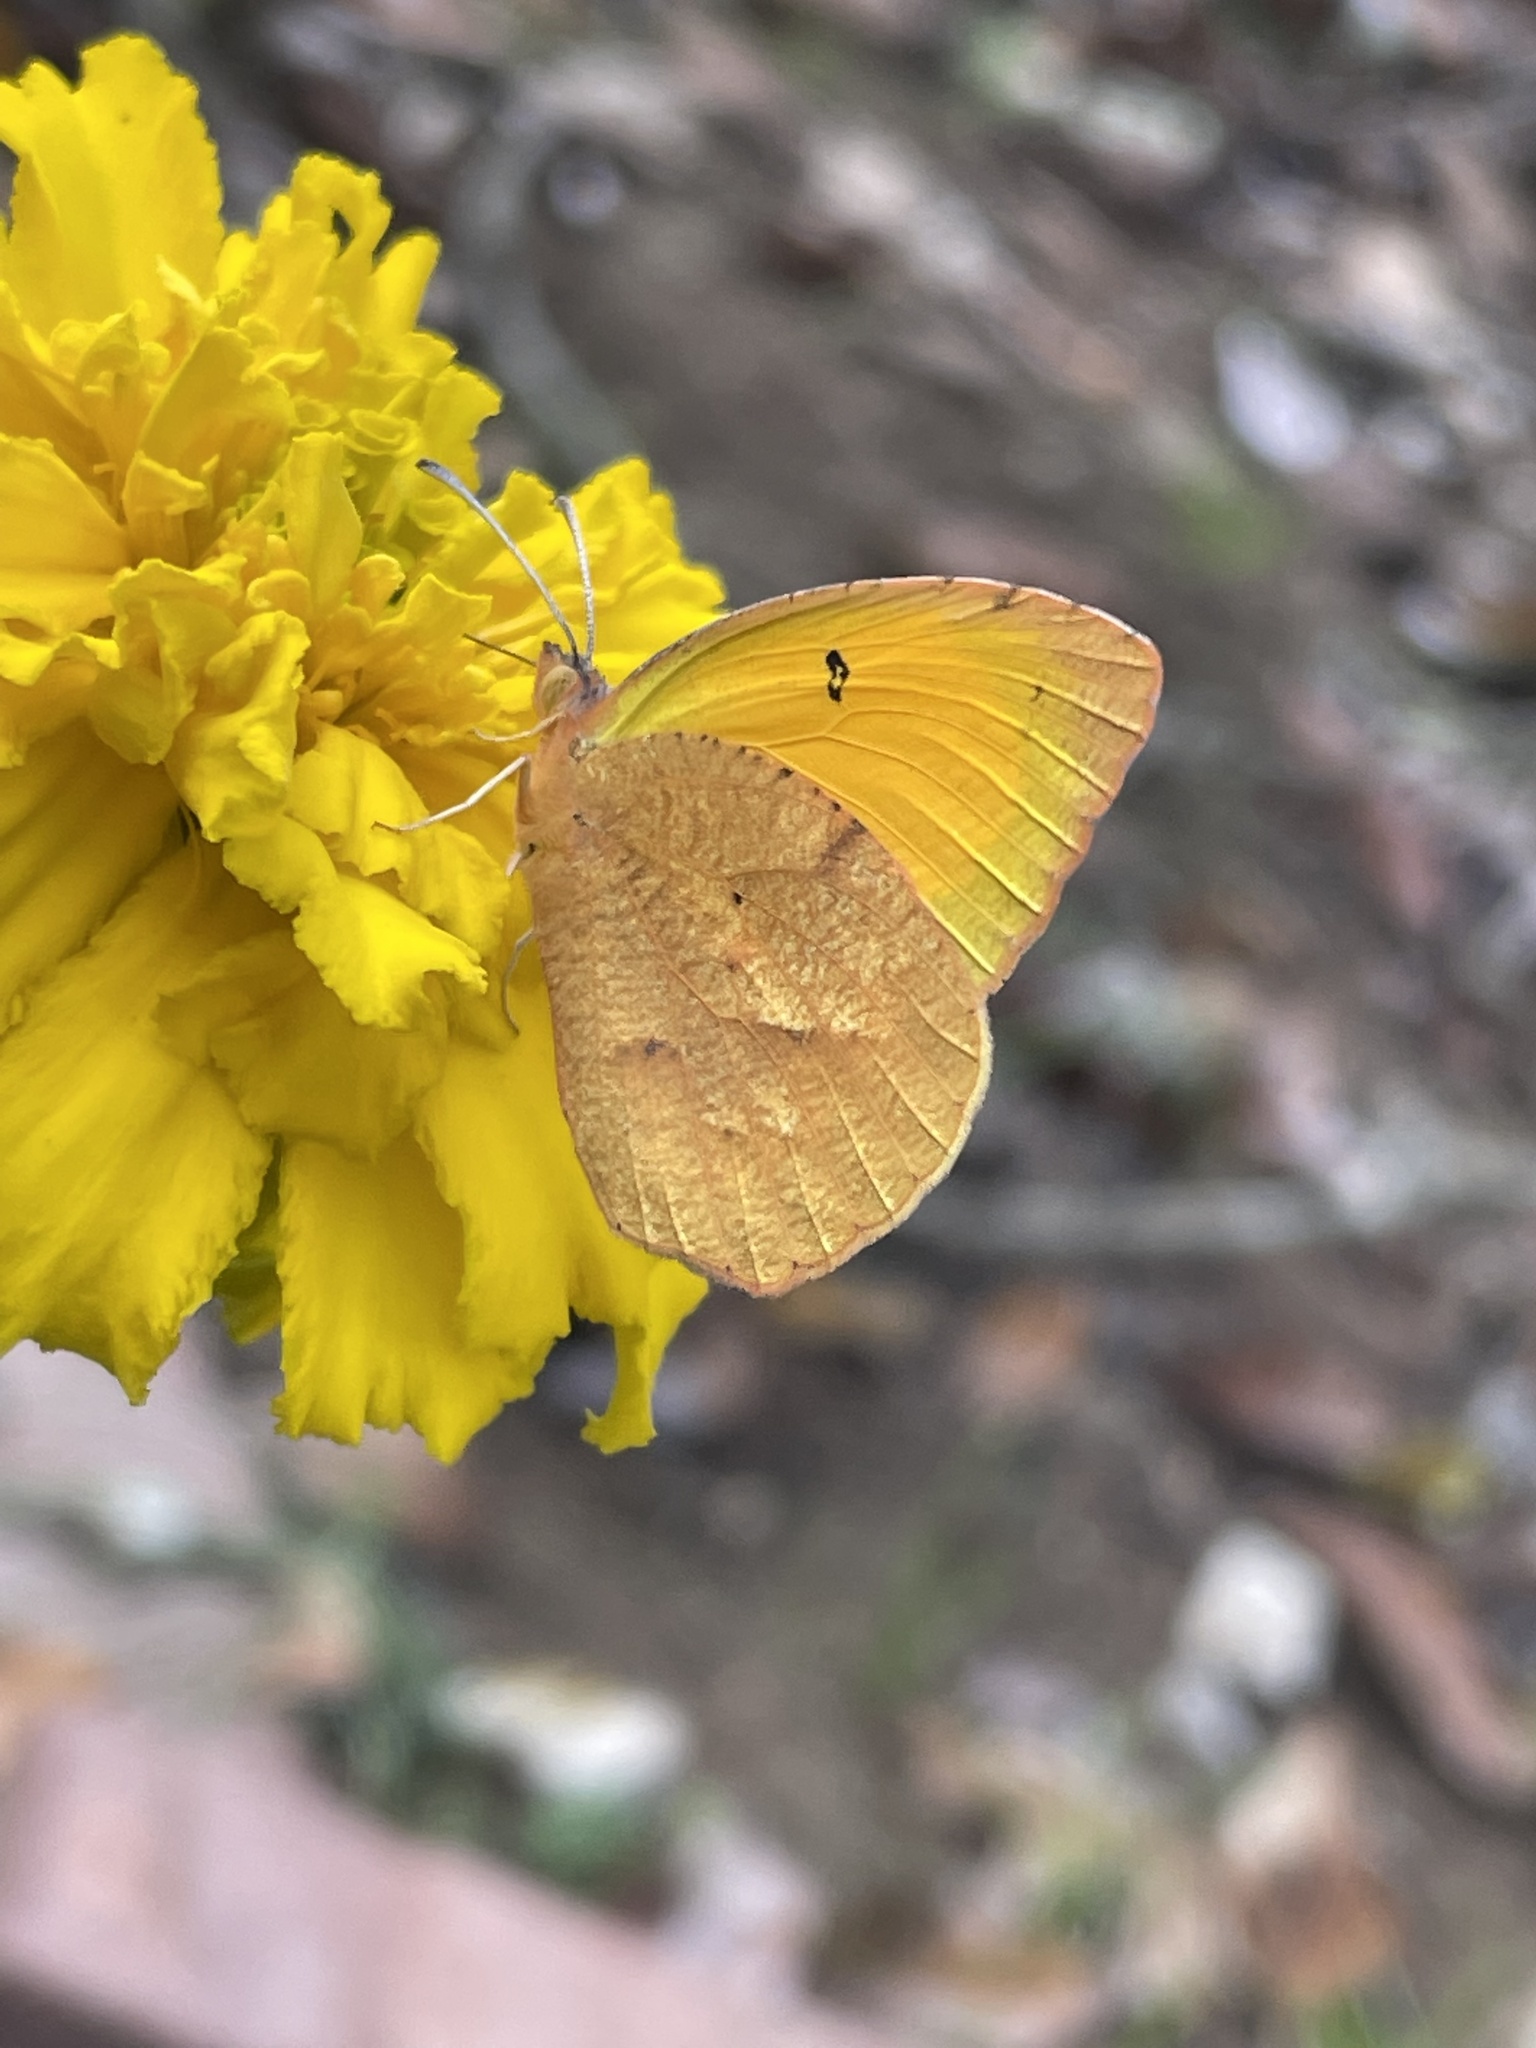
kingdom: Animalia
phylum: Arthropoda
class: Insecta
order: Lepidoptera
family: Pieridae
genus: Abaeis
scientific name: Abaeis nicippe
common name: Sleepy orange
